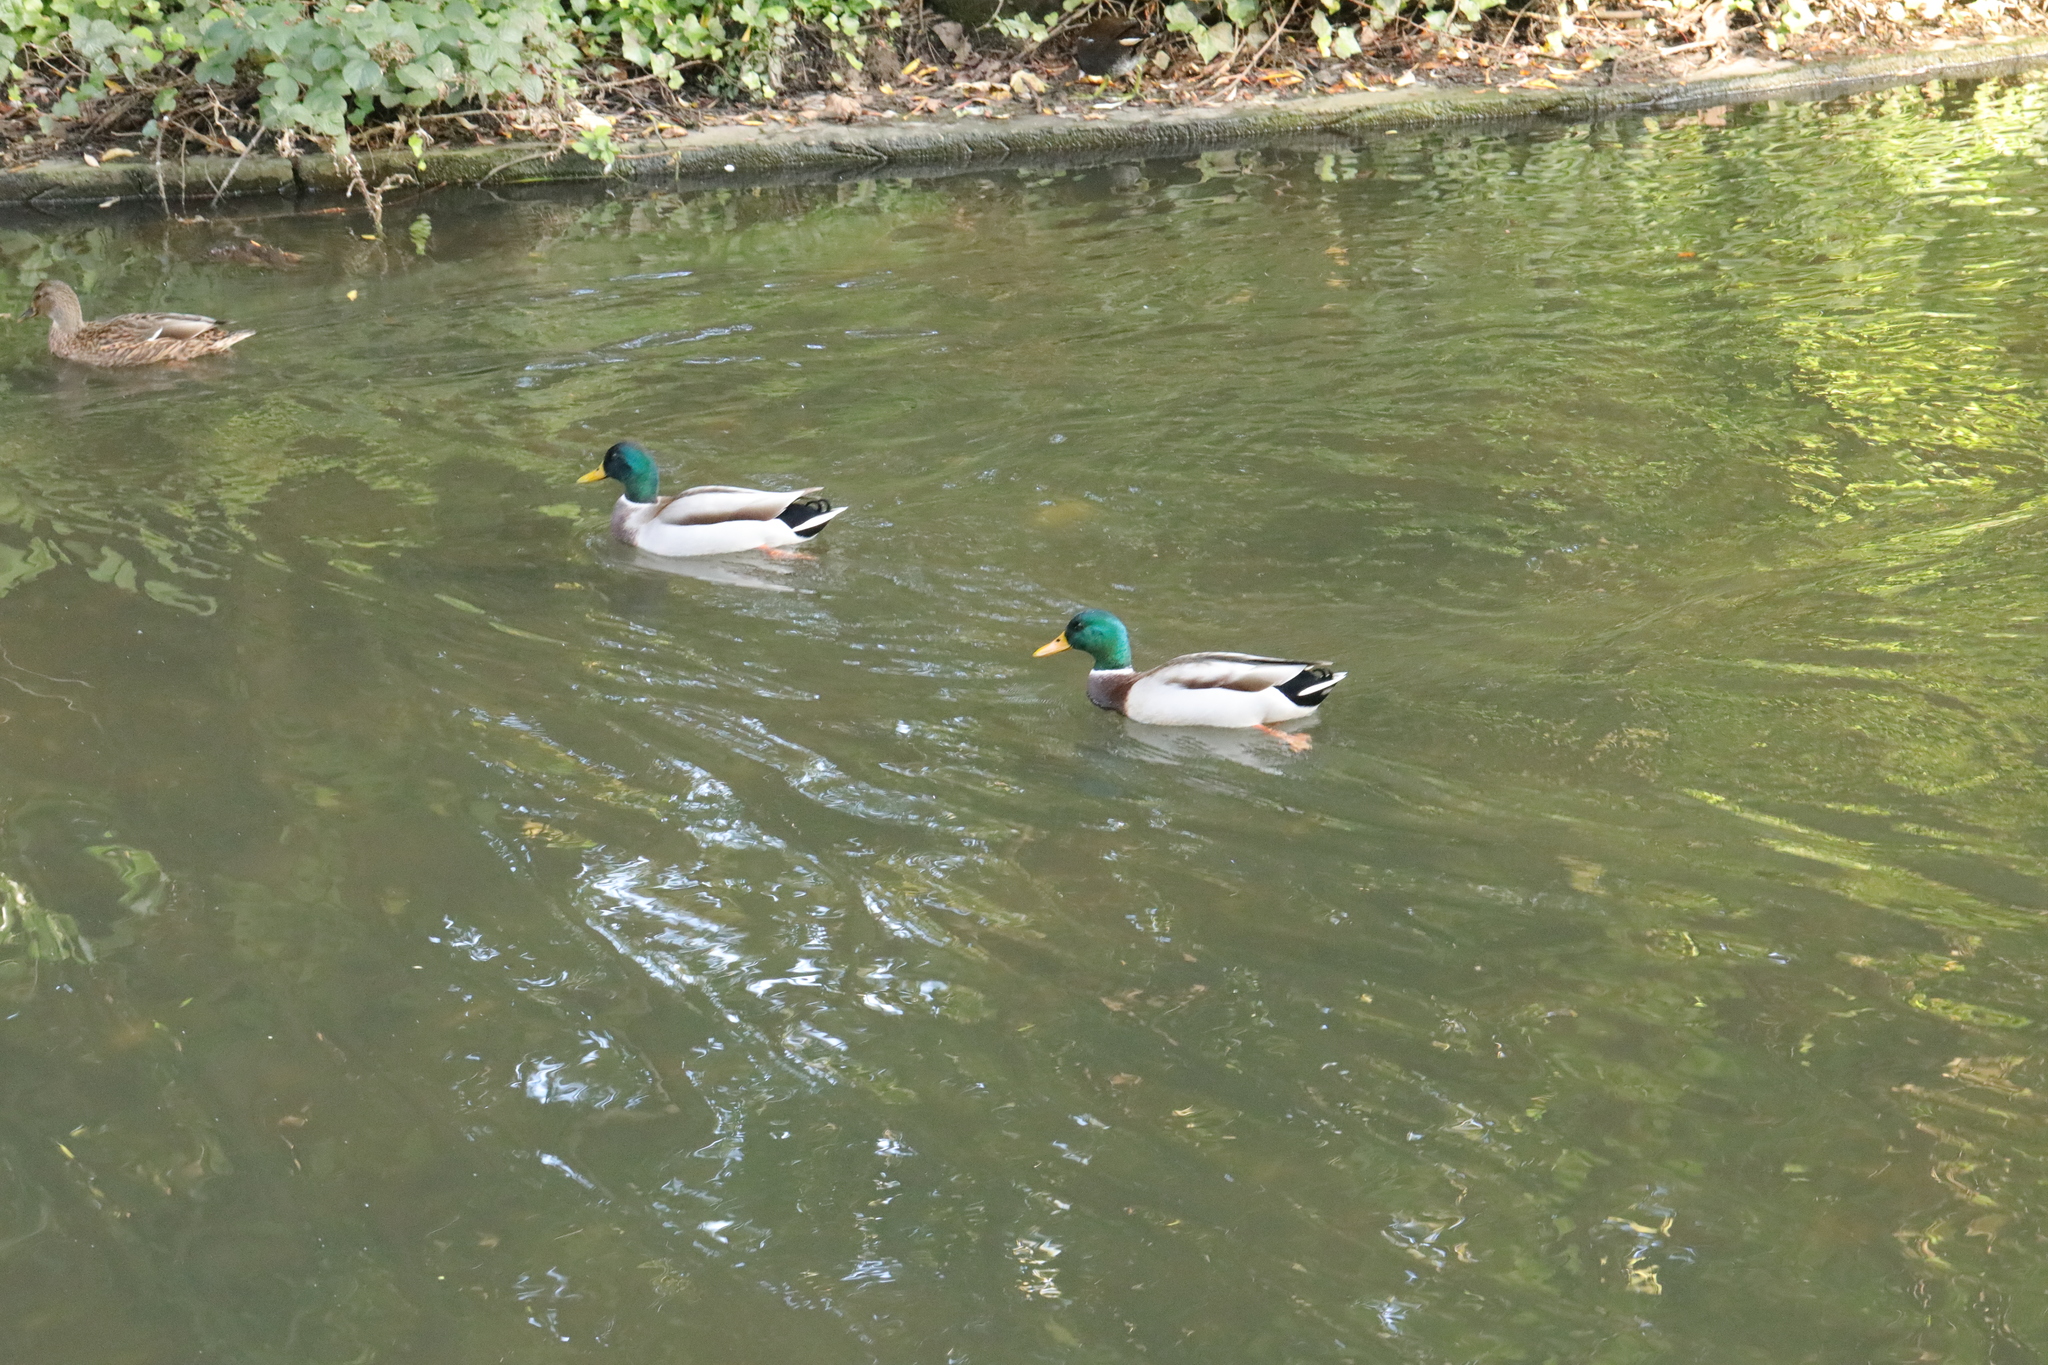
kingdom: Animalia
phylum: Chordata
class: Aves
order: Anseriformes
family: Anatidae
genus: Anas
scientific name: Anas platyrhynchos
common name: Mallard
